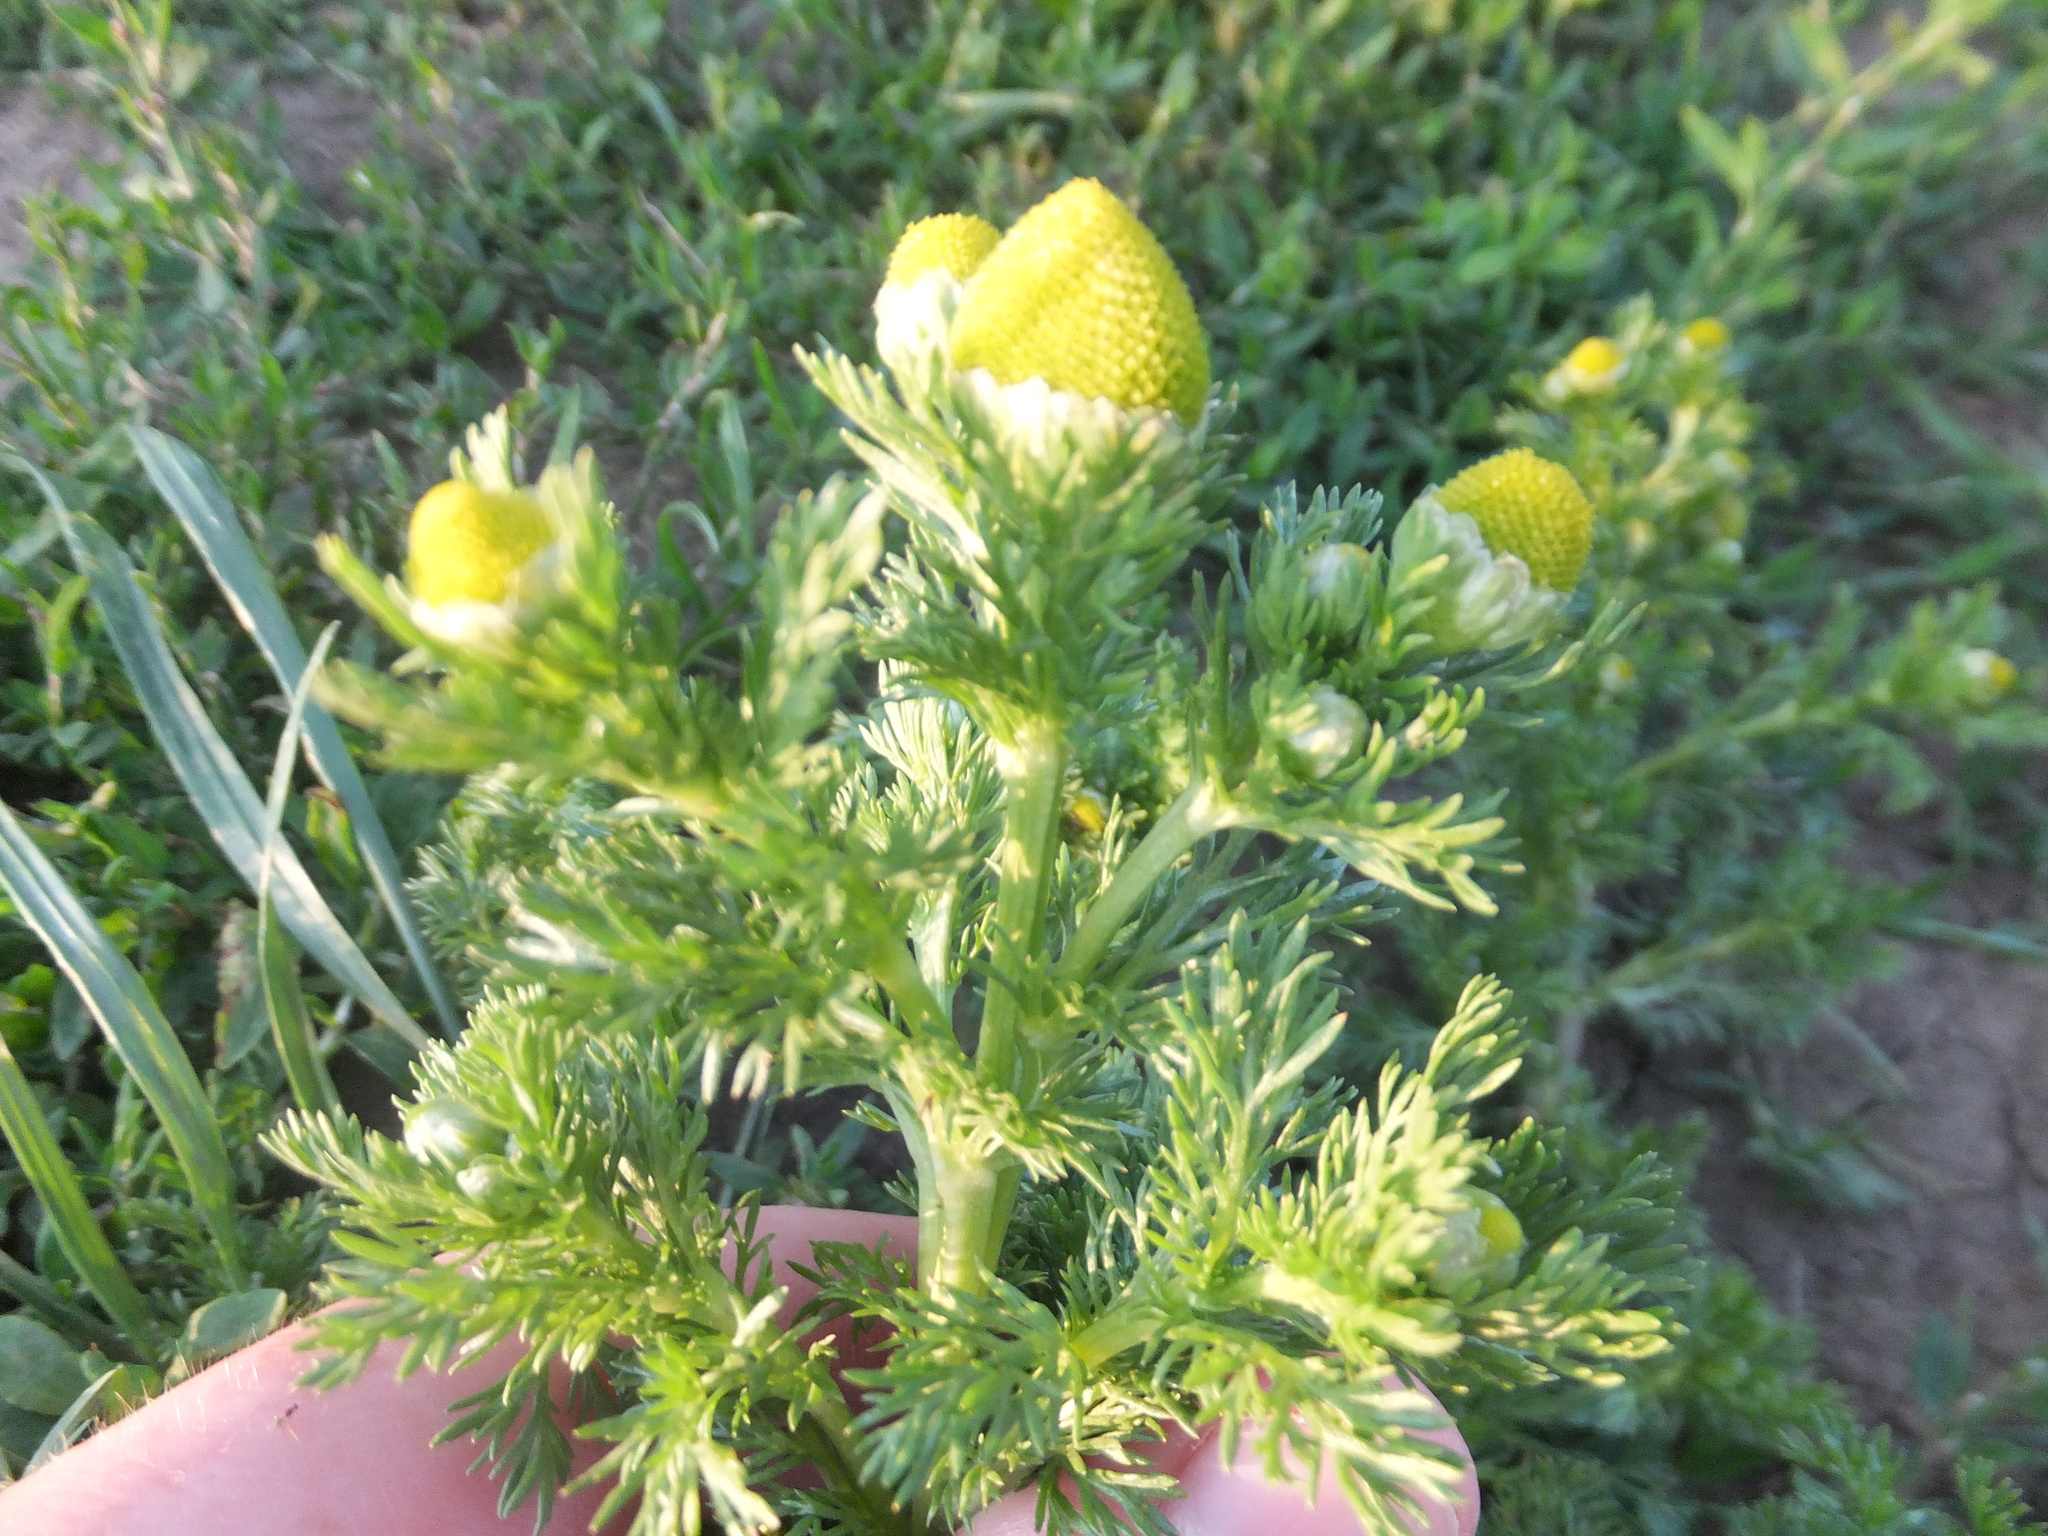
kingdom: Plantae
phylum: Tracheophyta
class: Magnoliopsida
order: Asterales
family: Asteraceae
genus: Matricaria
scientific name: Matricaria discoidea
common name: Disc mayweed
